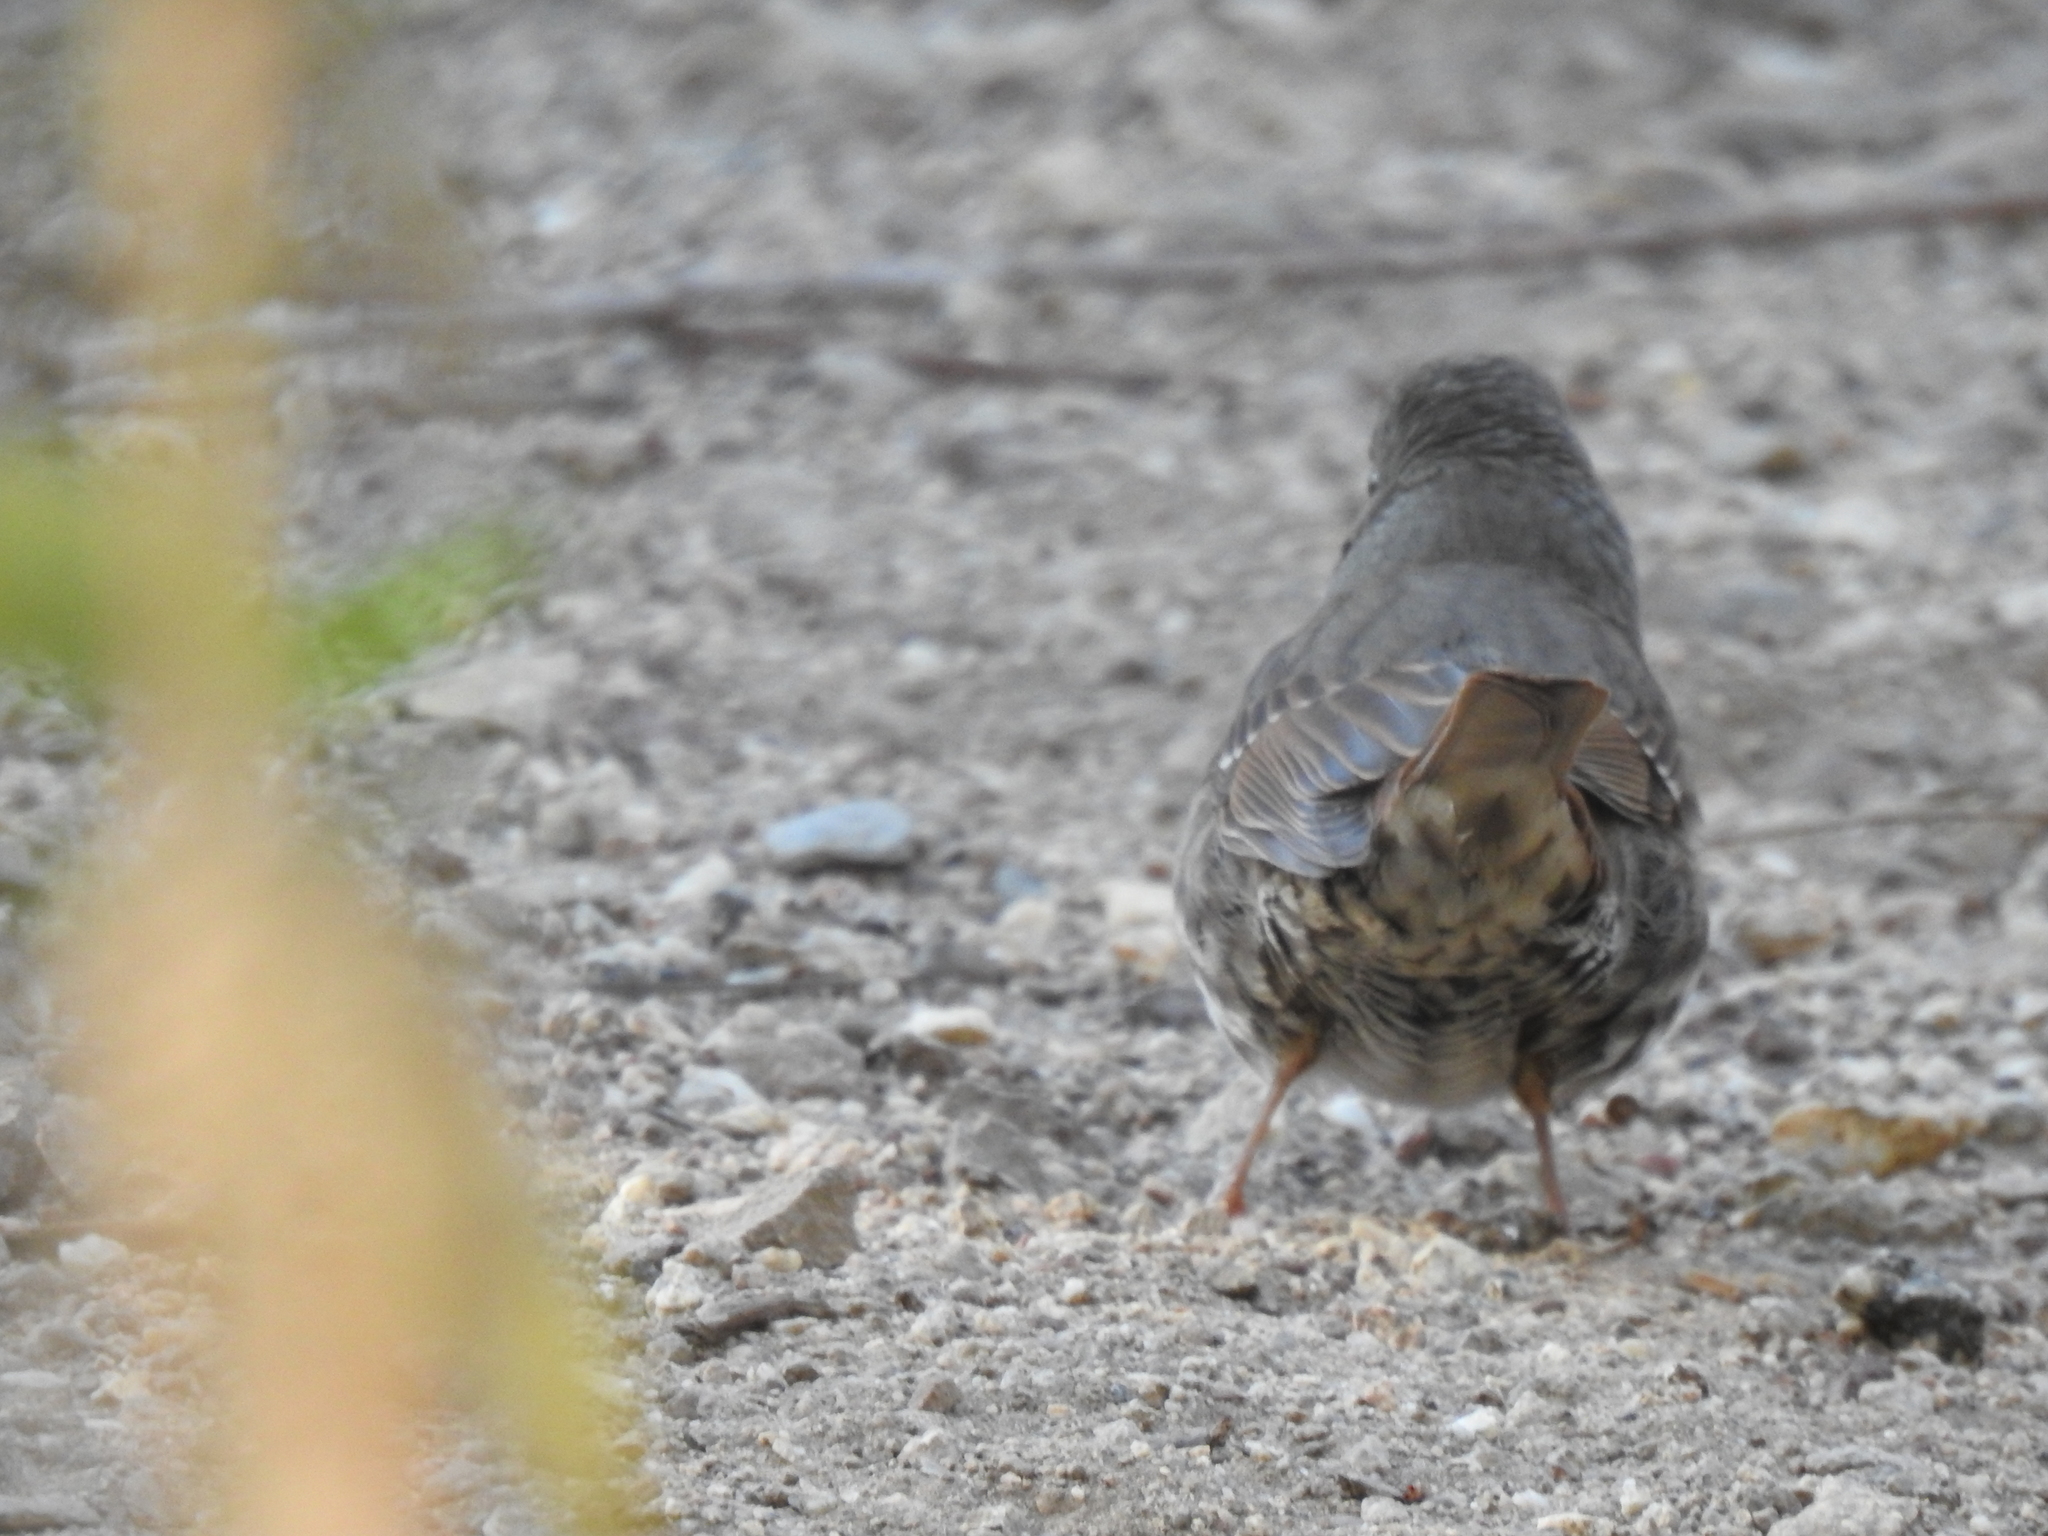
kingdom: Animalia
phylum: Chordata
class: Aves
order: Passeriformes
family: Passerellidae
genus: Passerella
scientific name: Passerella iliaca
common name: Fox sparrow
